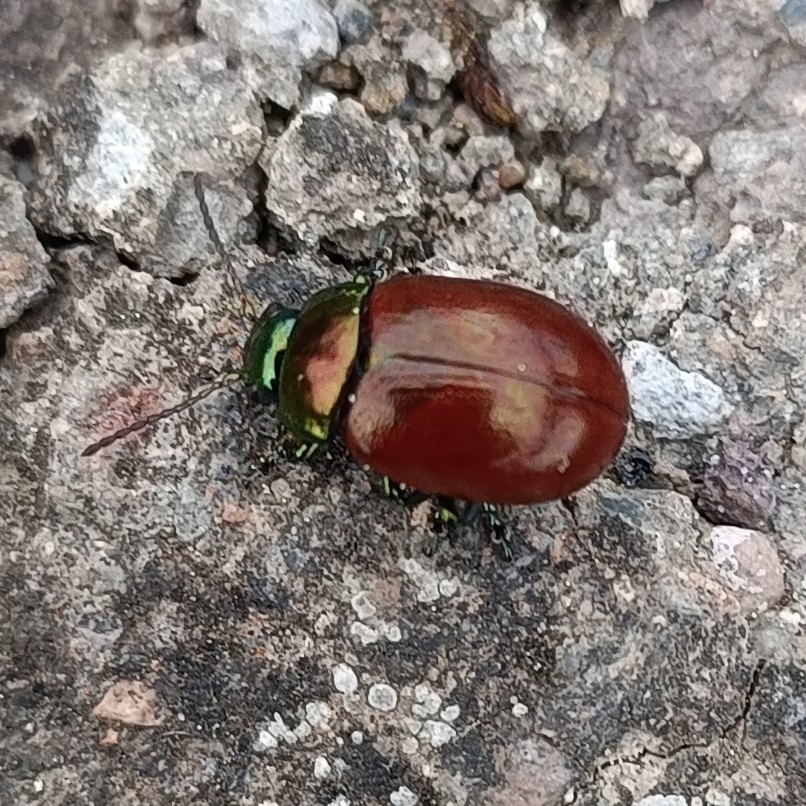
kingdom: Animalia
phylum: Arthropoda
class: Insecta
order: Coleoptera
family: Chrysomelidae
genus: Chrysomela
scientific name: Chrysomela polita
